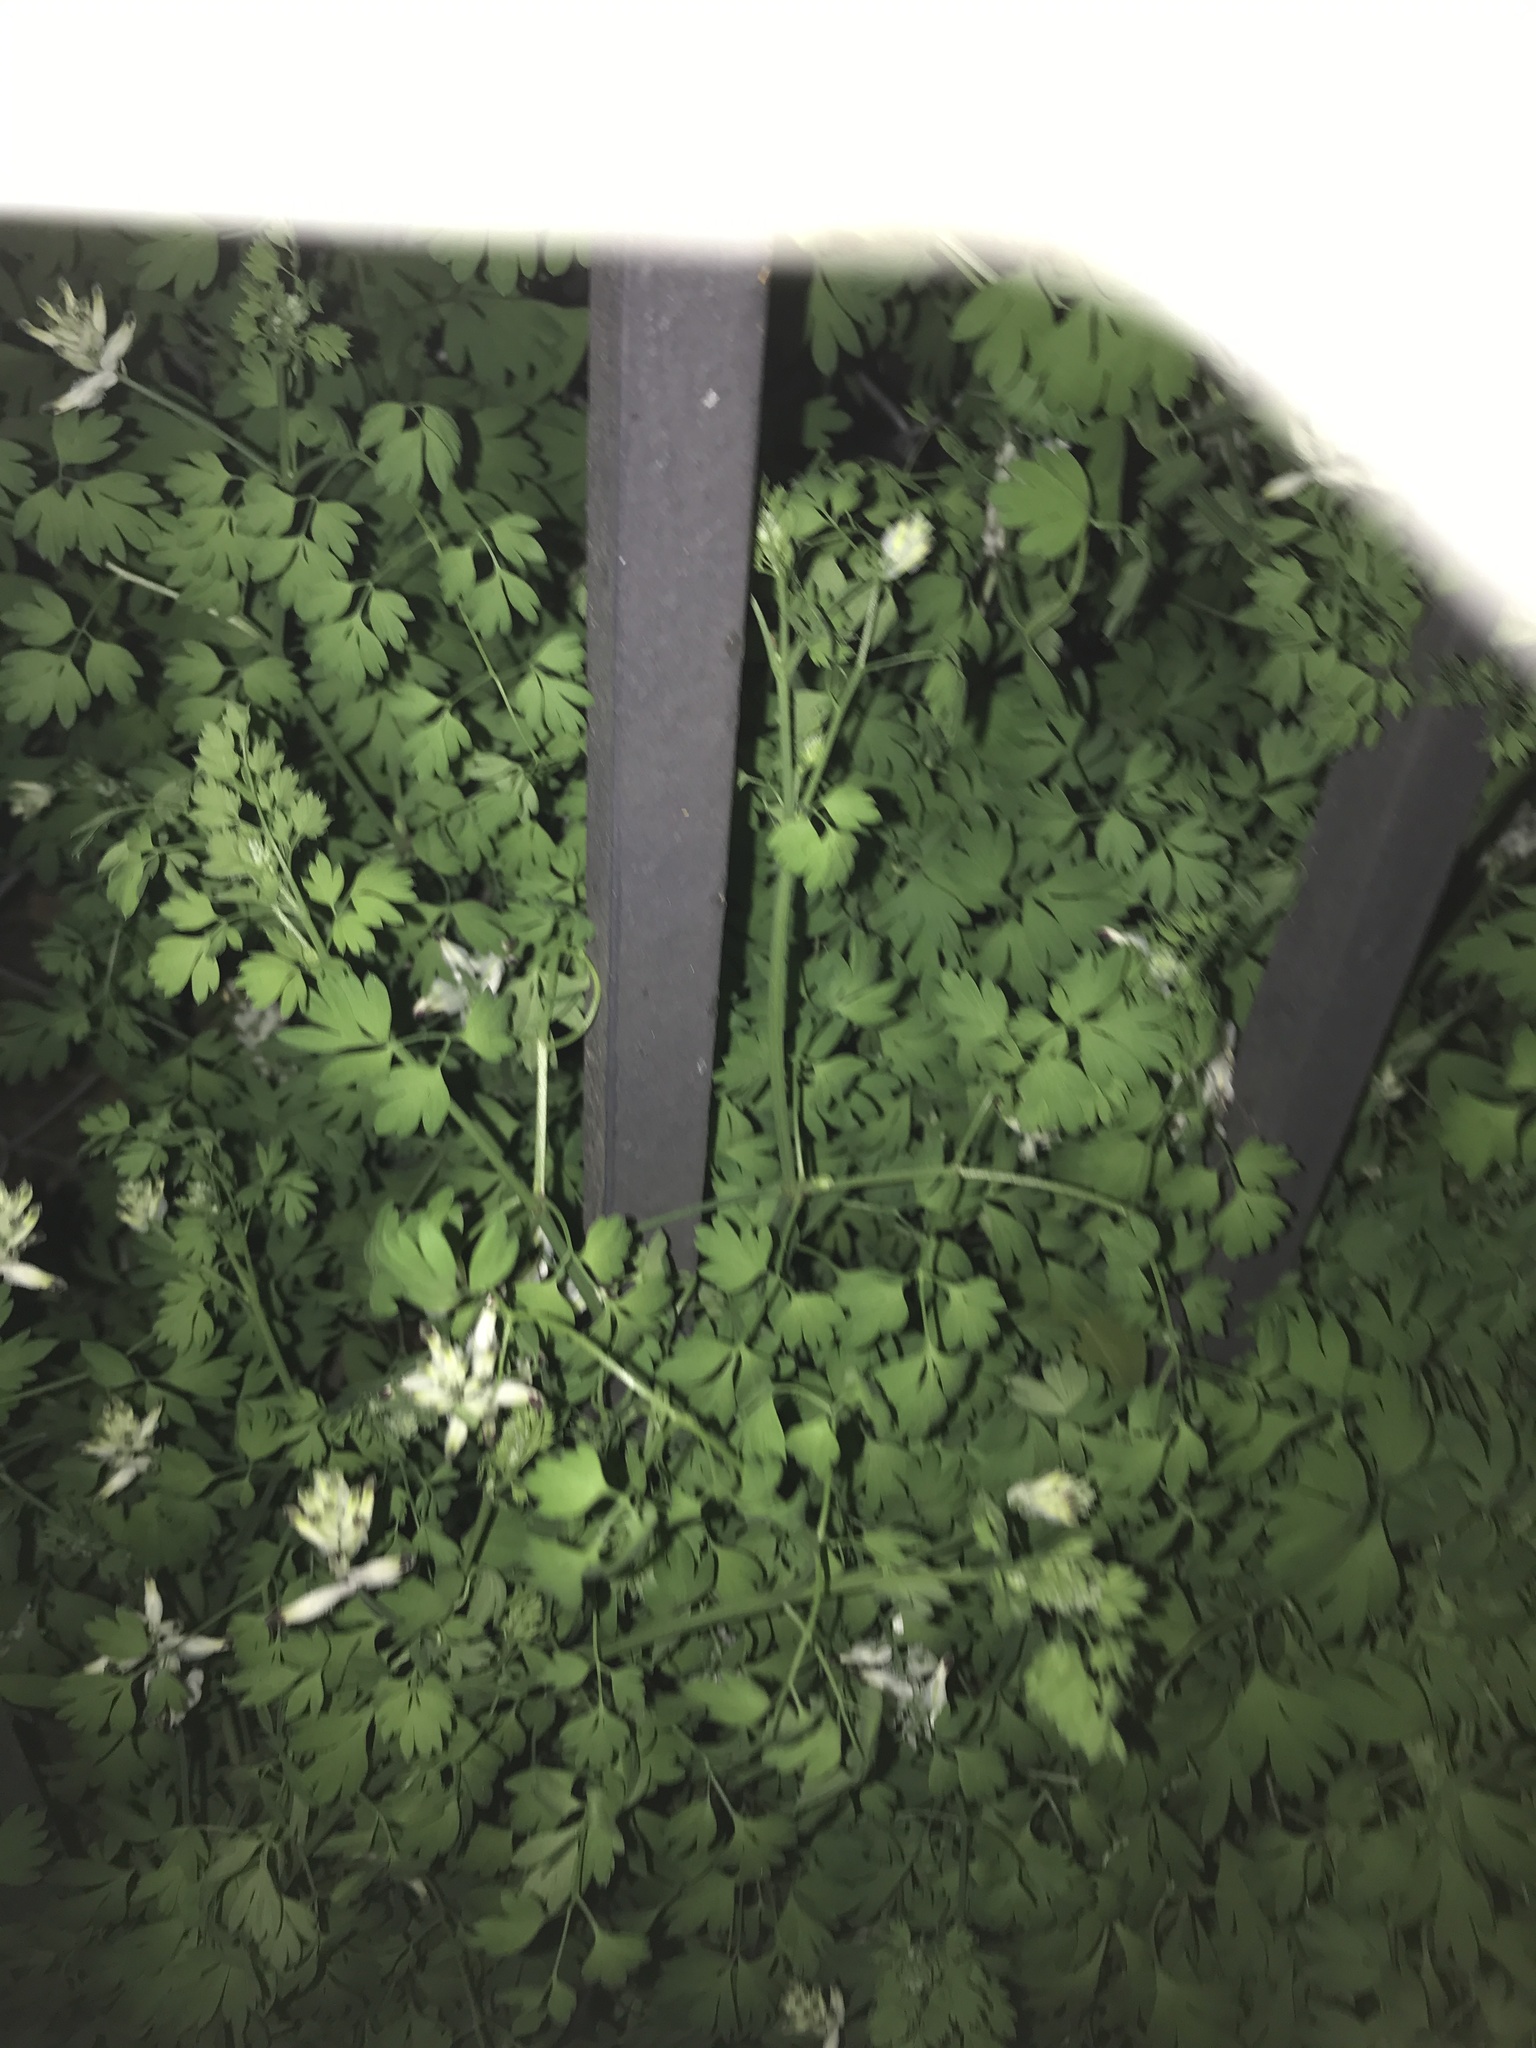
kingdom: Plantae
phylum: Tracheophyta
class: Magnoliopsida
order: Ranunculales
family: Papaveraceae
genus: Fumaria
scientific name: Fumaria capreolata
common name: White ramping-fumitory
